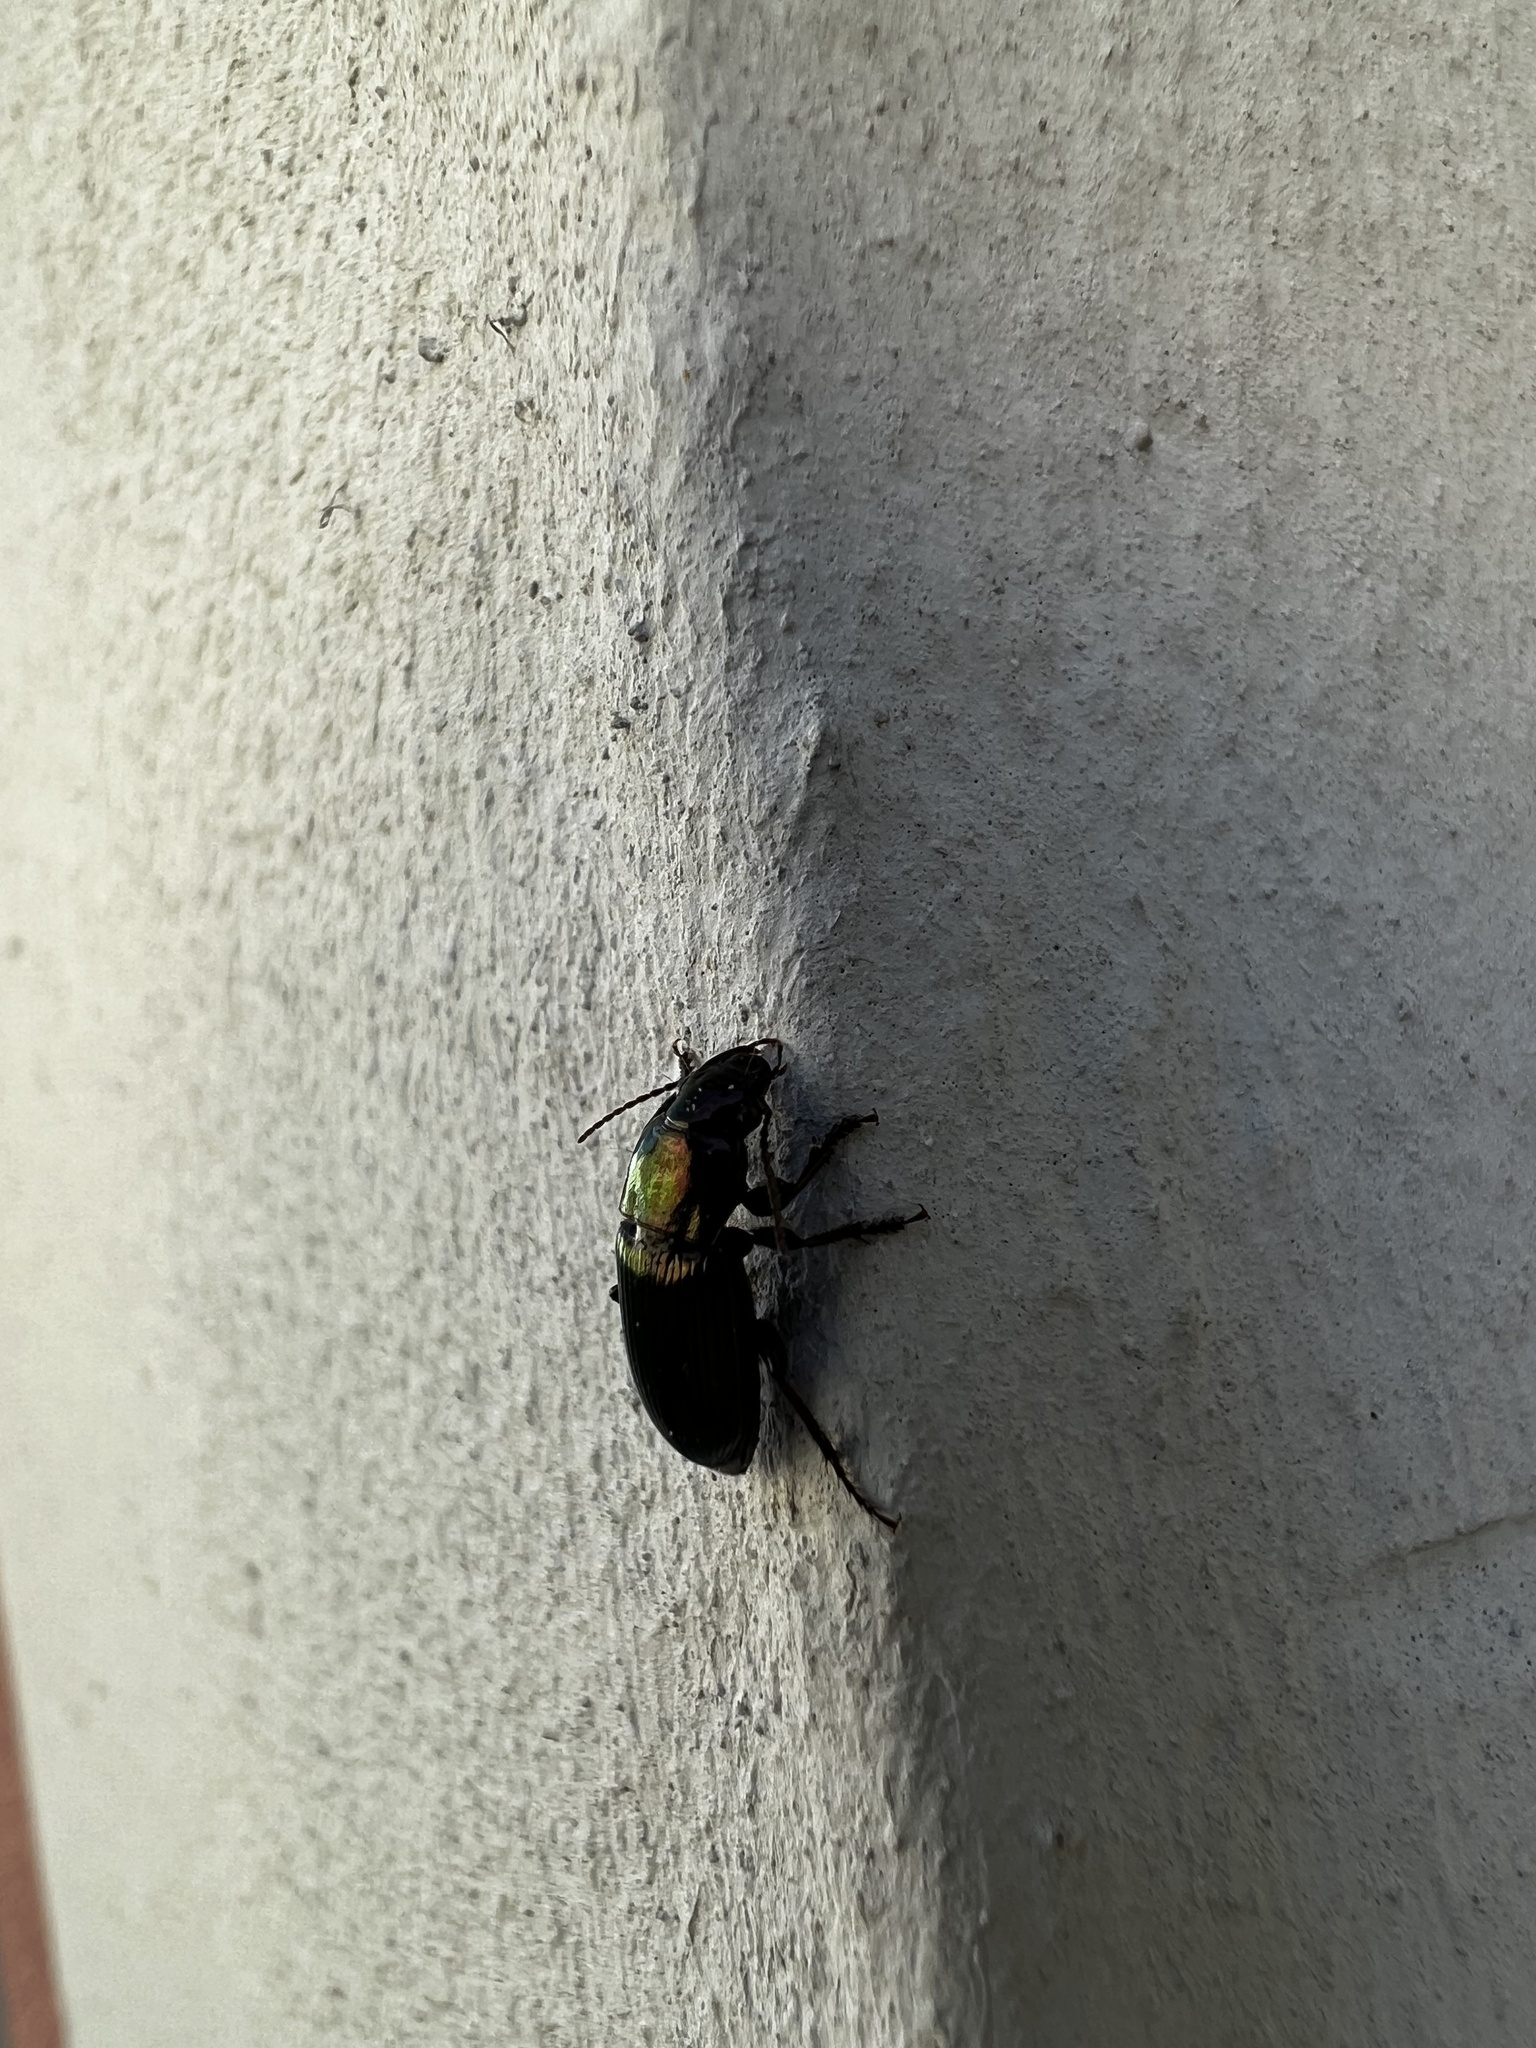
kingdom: Animalia
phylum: Arthropoda
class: Insecta
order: Coleoptera
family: Carabidae
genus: Harpalus
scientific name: Harpalus distinguendus
